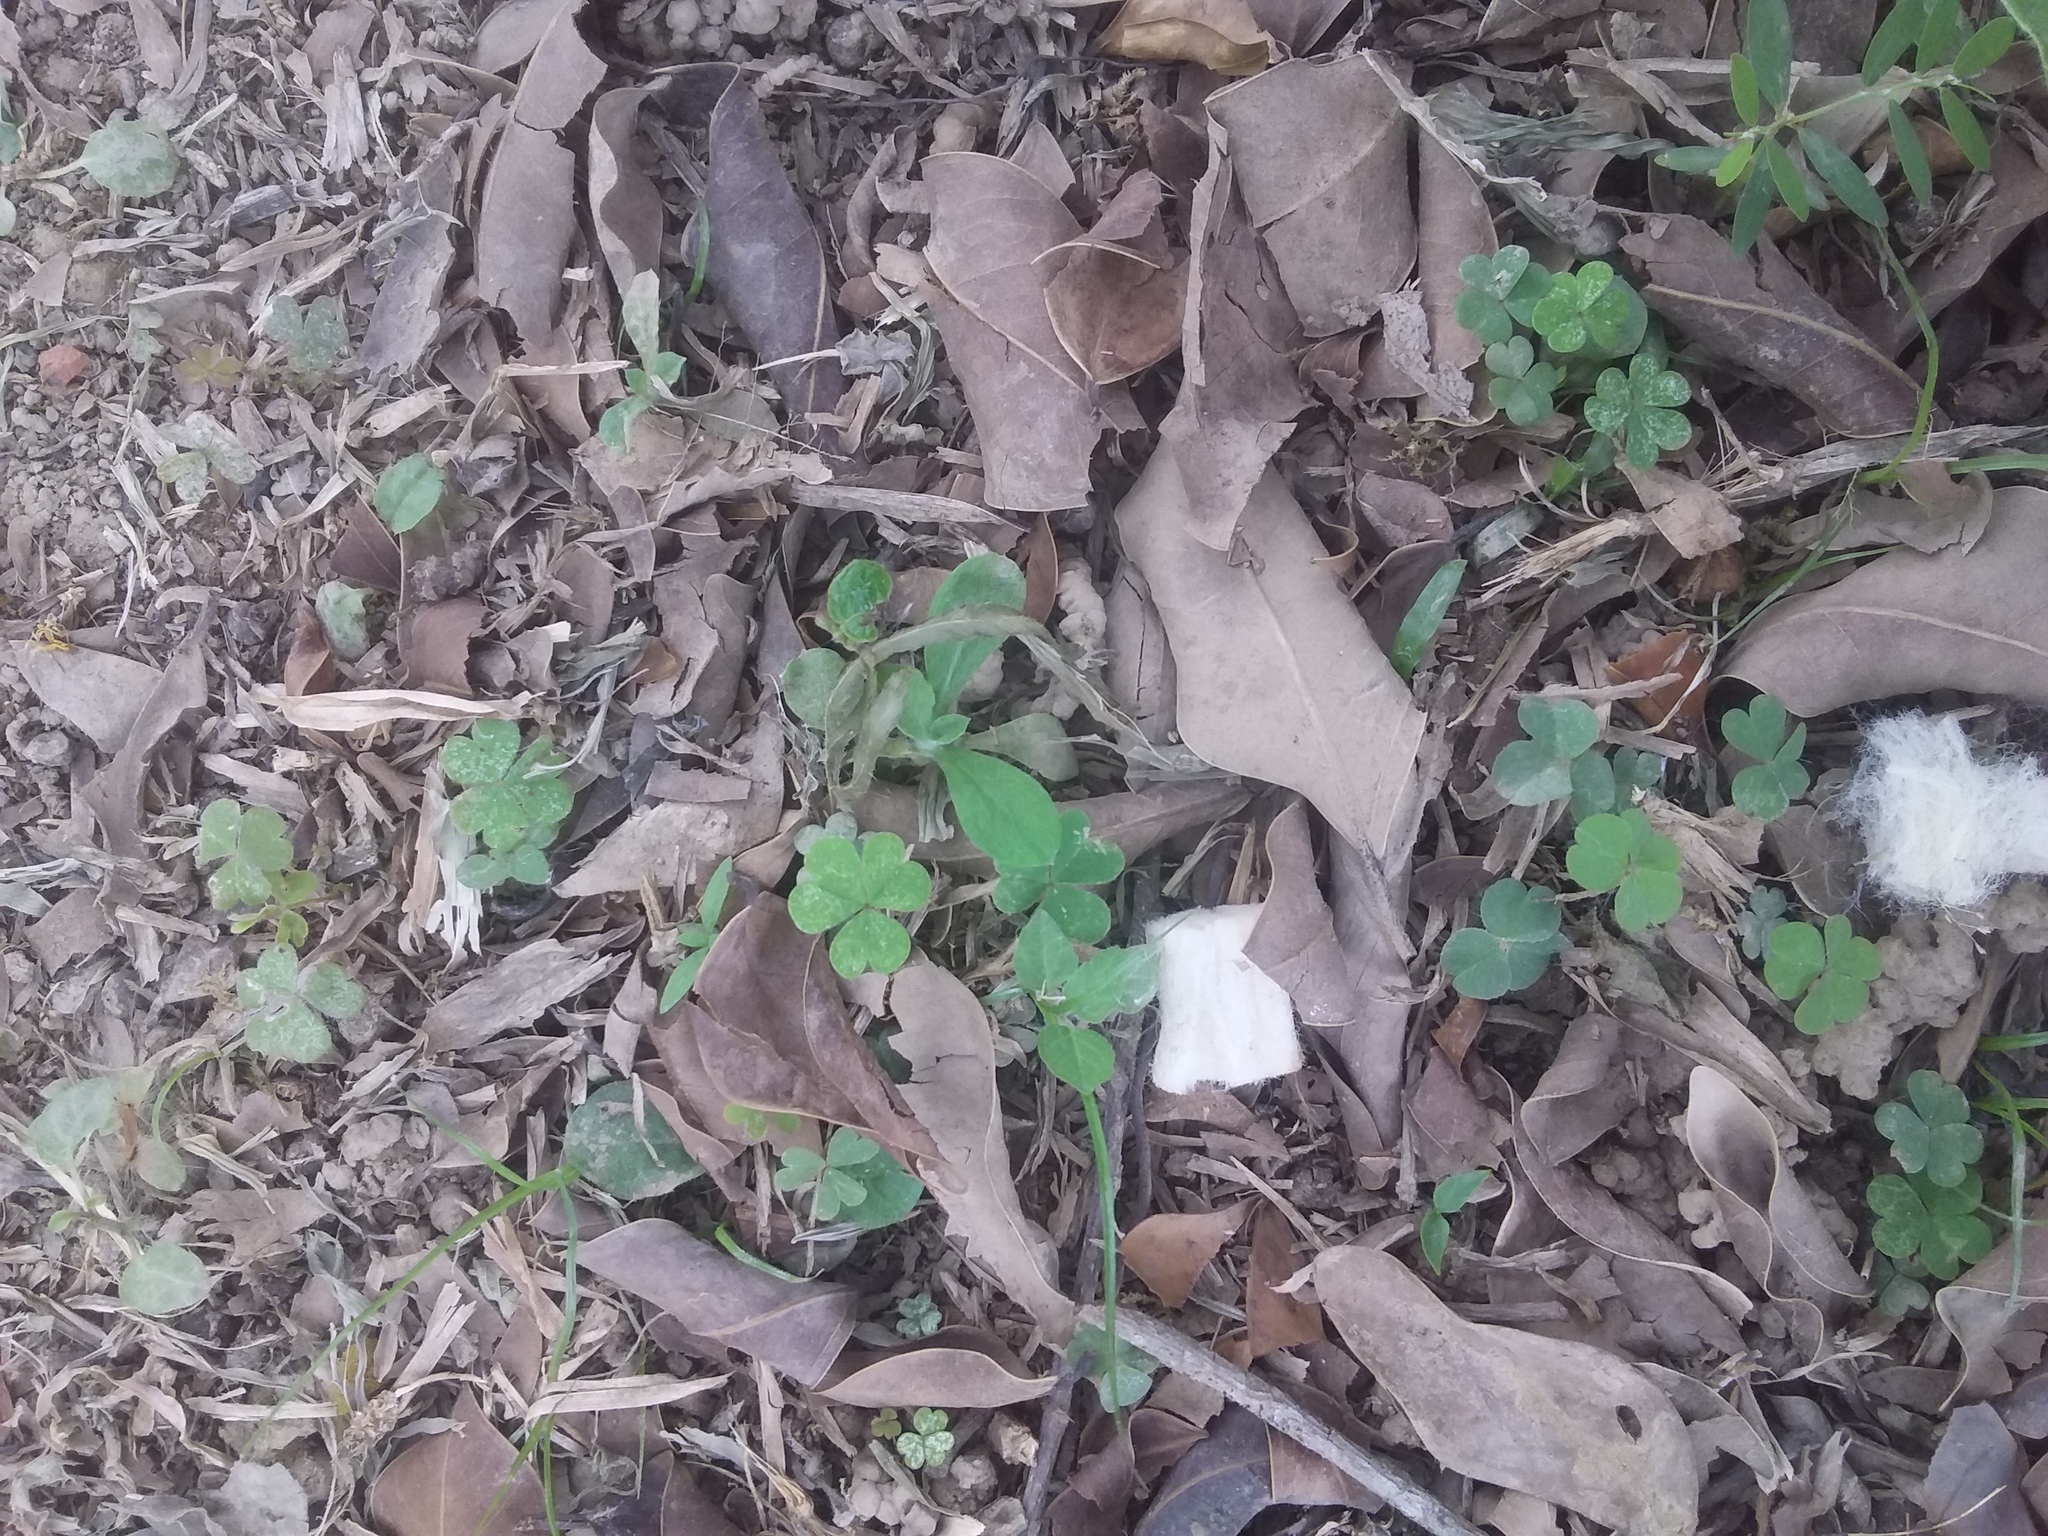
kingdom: Plantae
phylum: Tracheophyta
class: Magnoliopsida
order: Oxalidales
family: Oxalidaceae
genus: Oxalis
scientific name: Oxalis corniculata
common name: Procumbent yellow-sorrel
